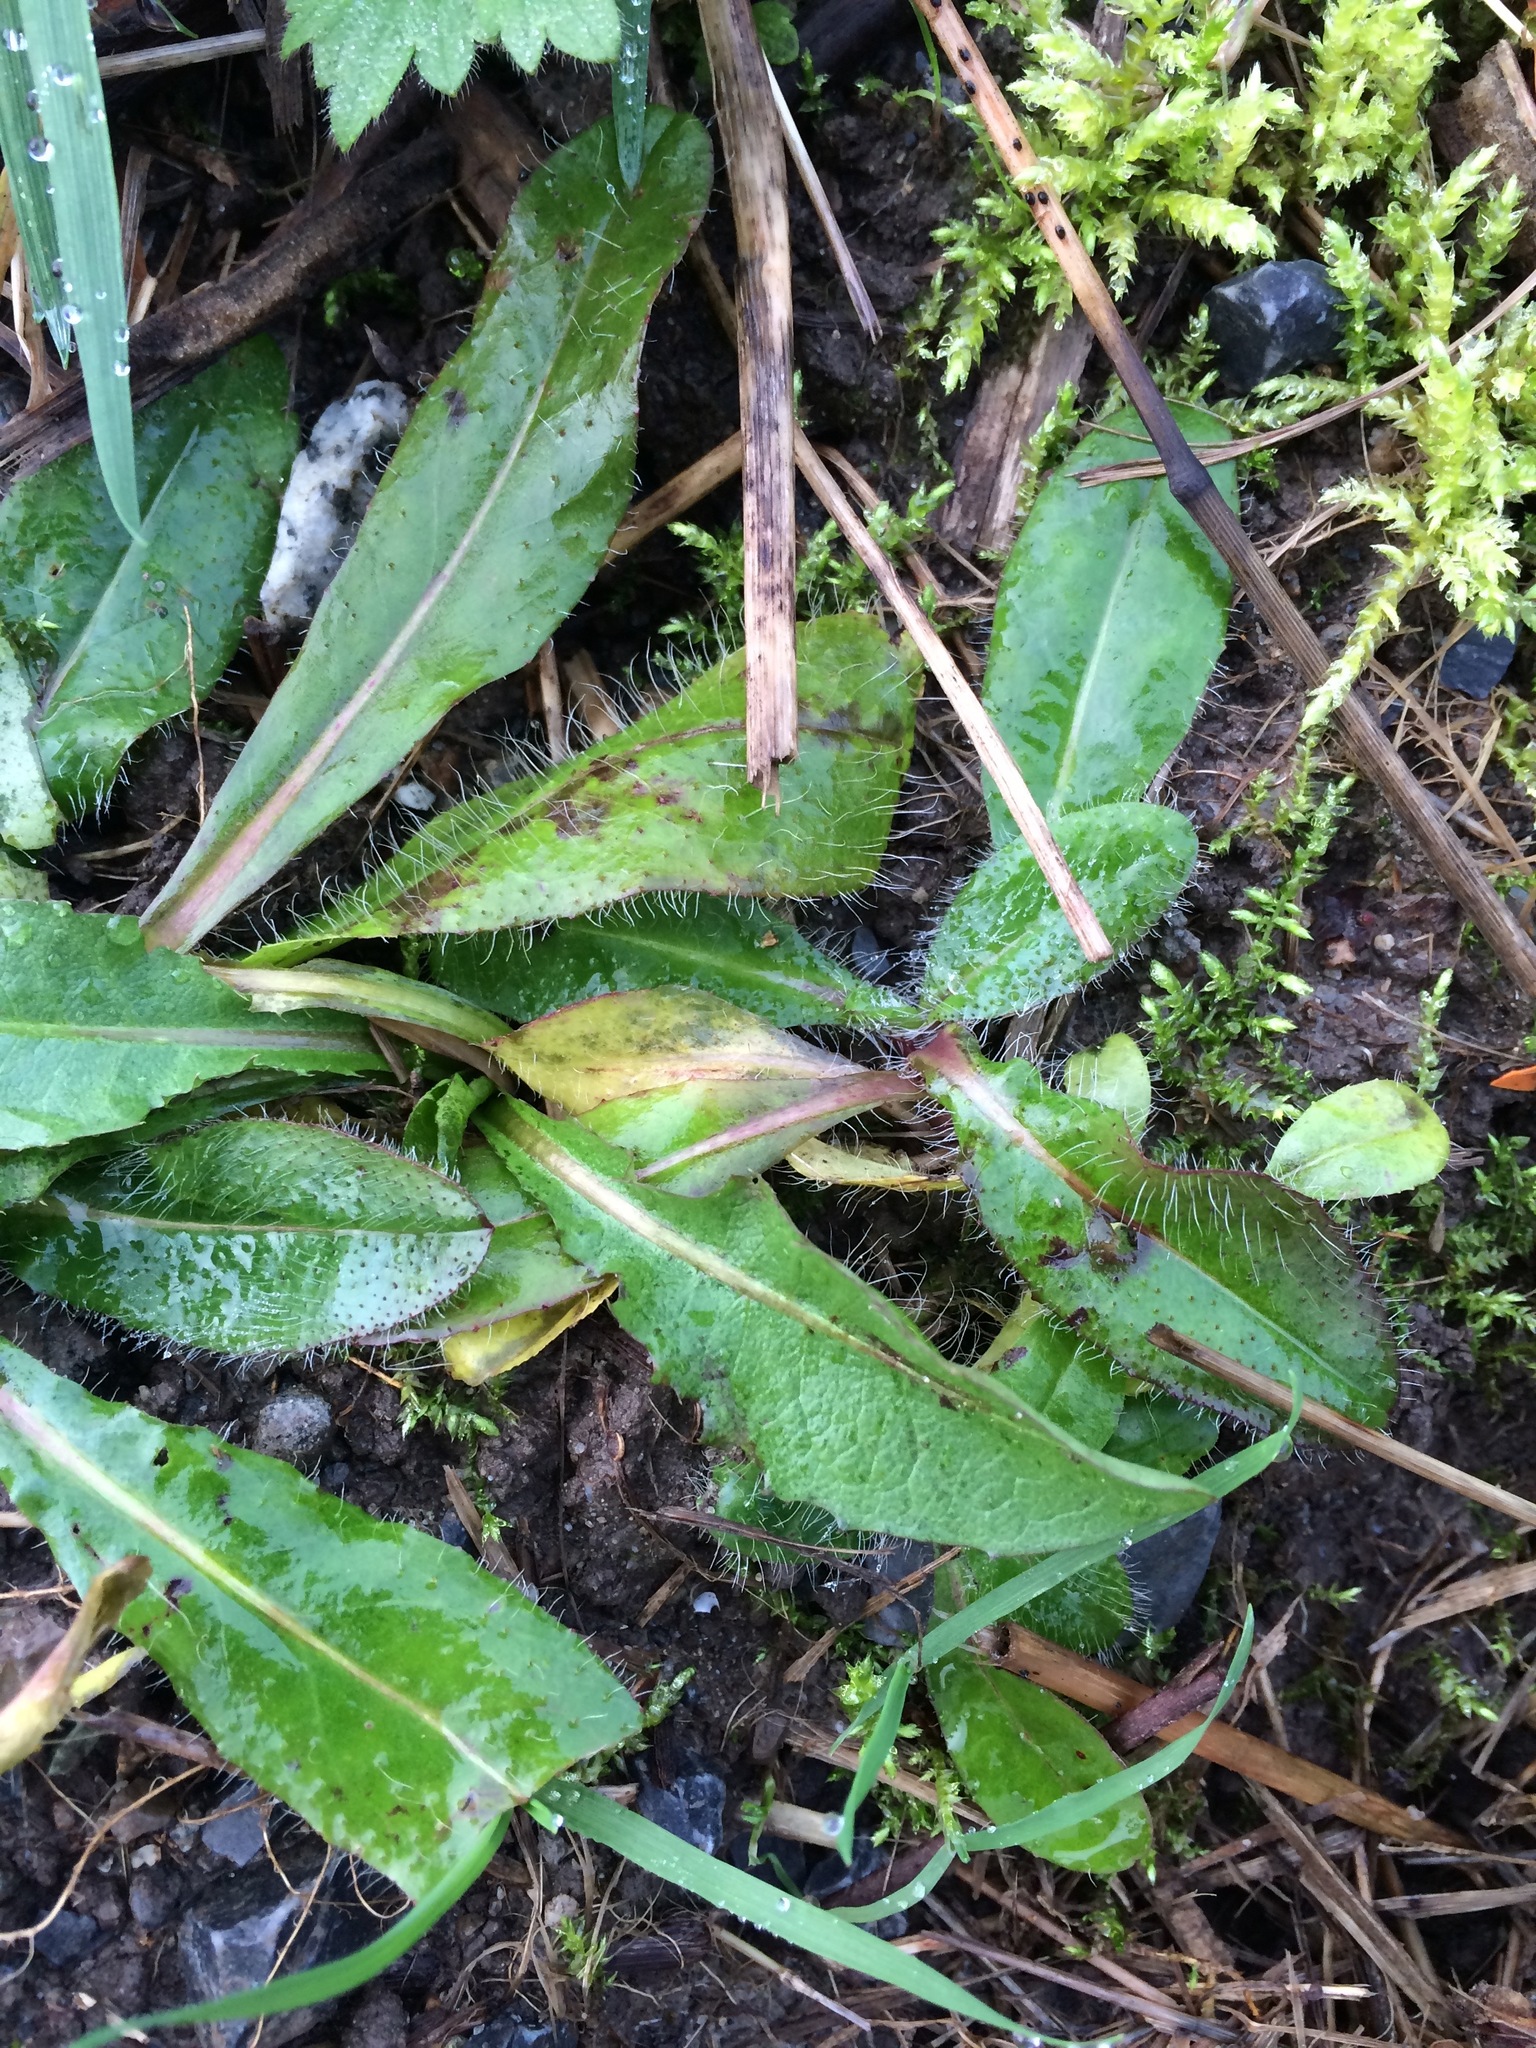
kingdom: Plantae
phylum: Tracheophyta
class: Magnoliopsida
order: Asterales
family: Asteraceae
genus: Pilosella
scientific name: Pilosella aurantiaca
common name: Fox-and-cubs
